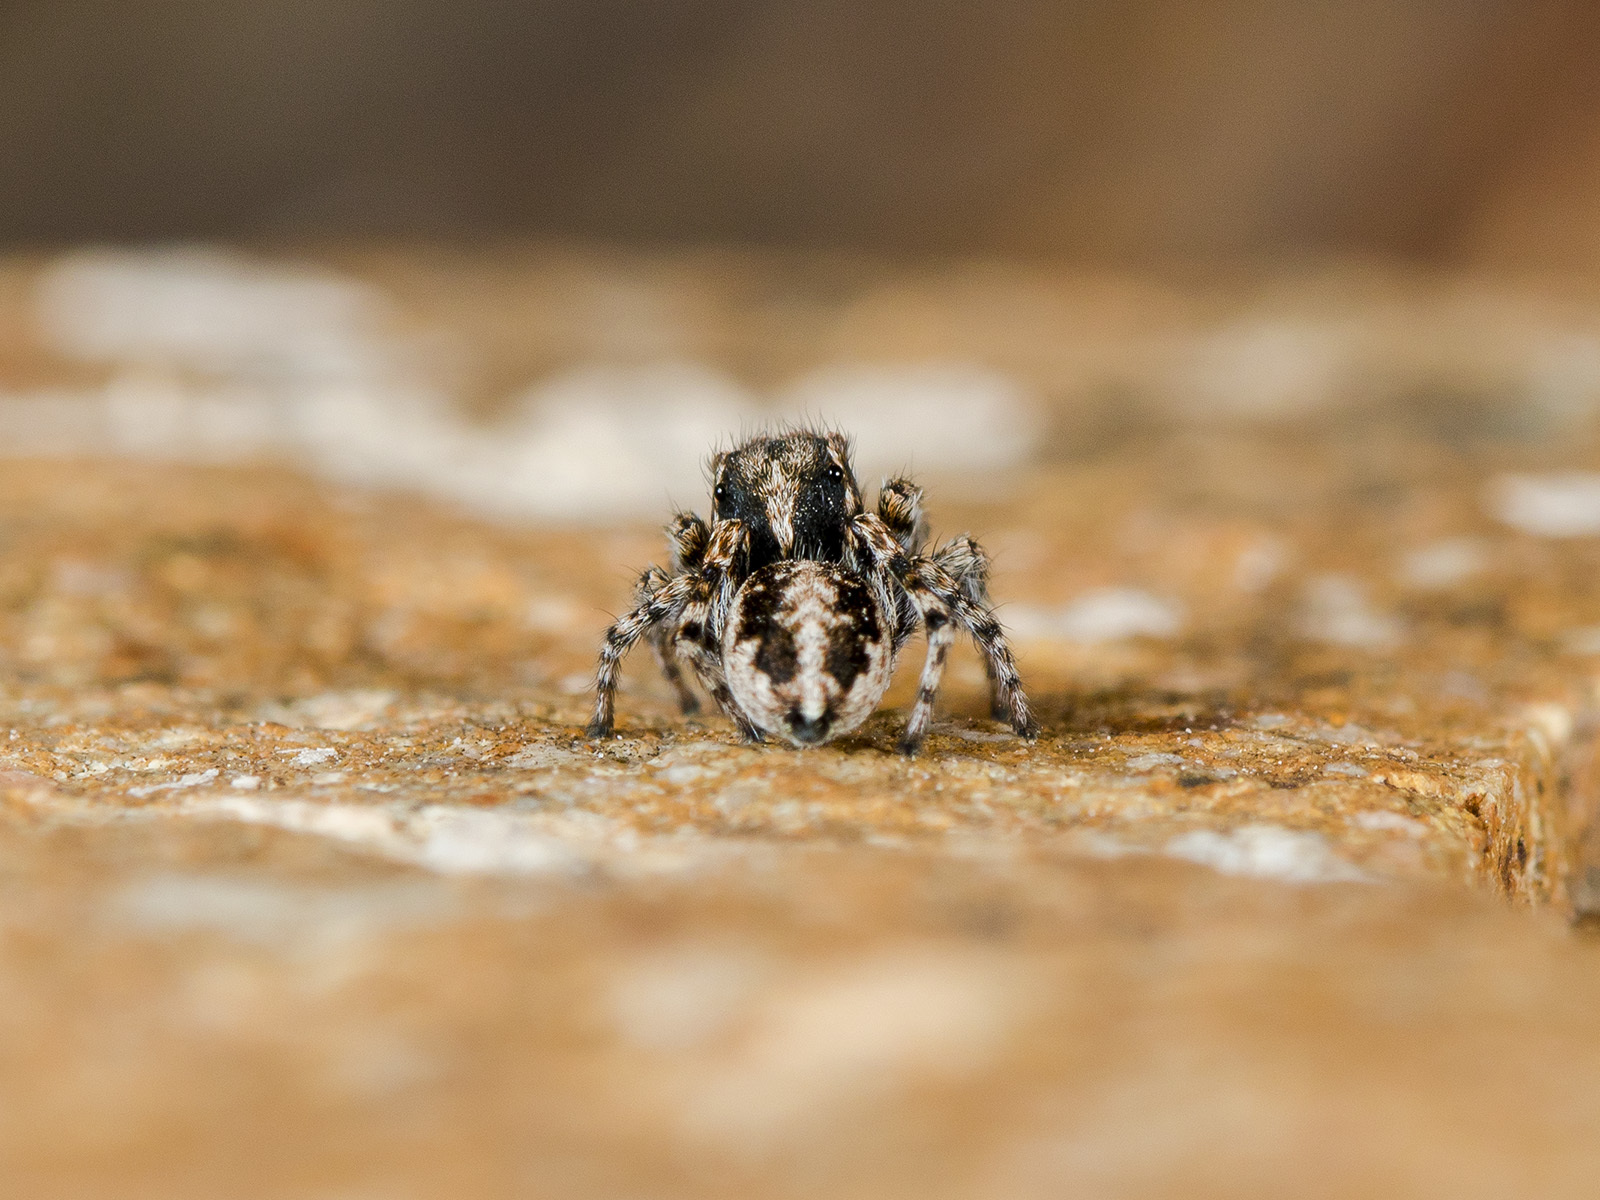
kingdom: Animalia
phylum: Arthropoda
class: Arachnida
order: Araneae
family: Salticidae
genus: Attulus
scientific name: Attulus distinguendus
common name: Distinguished jumper
